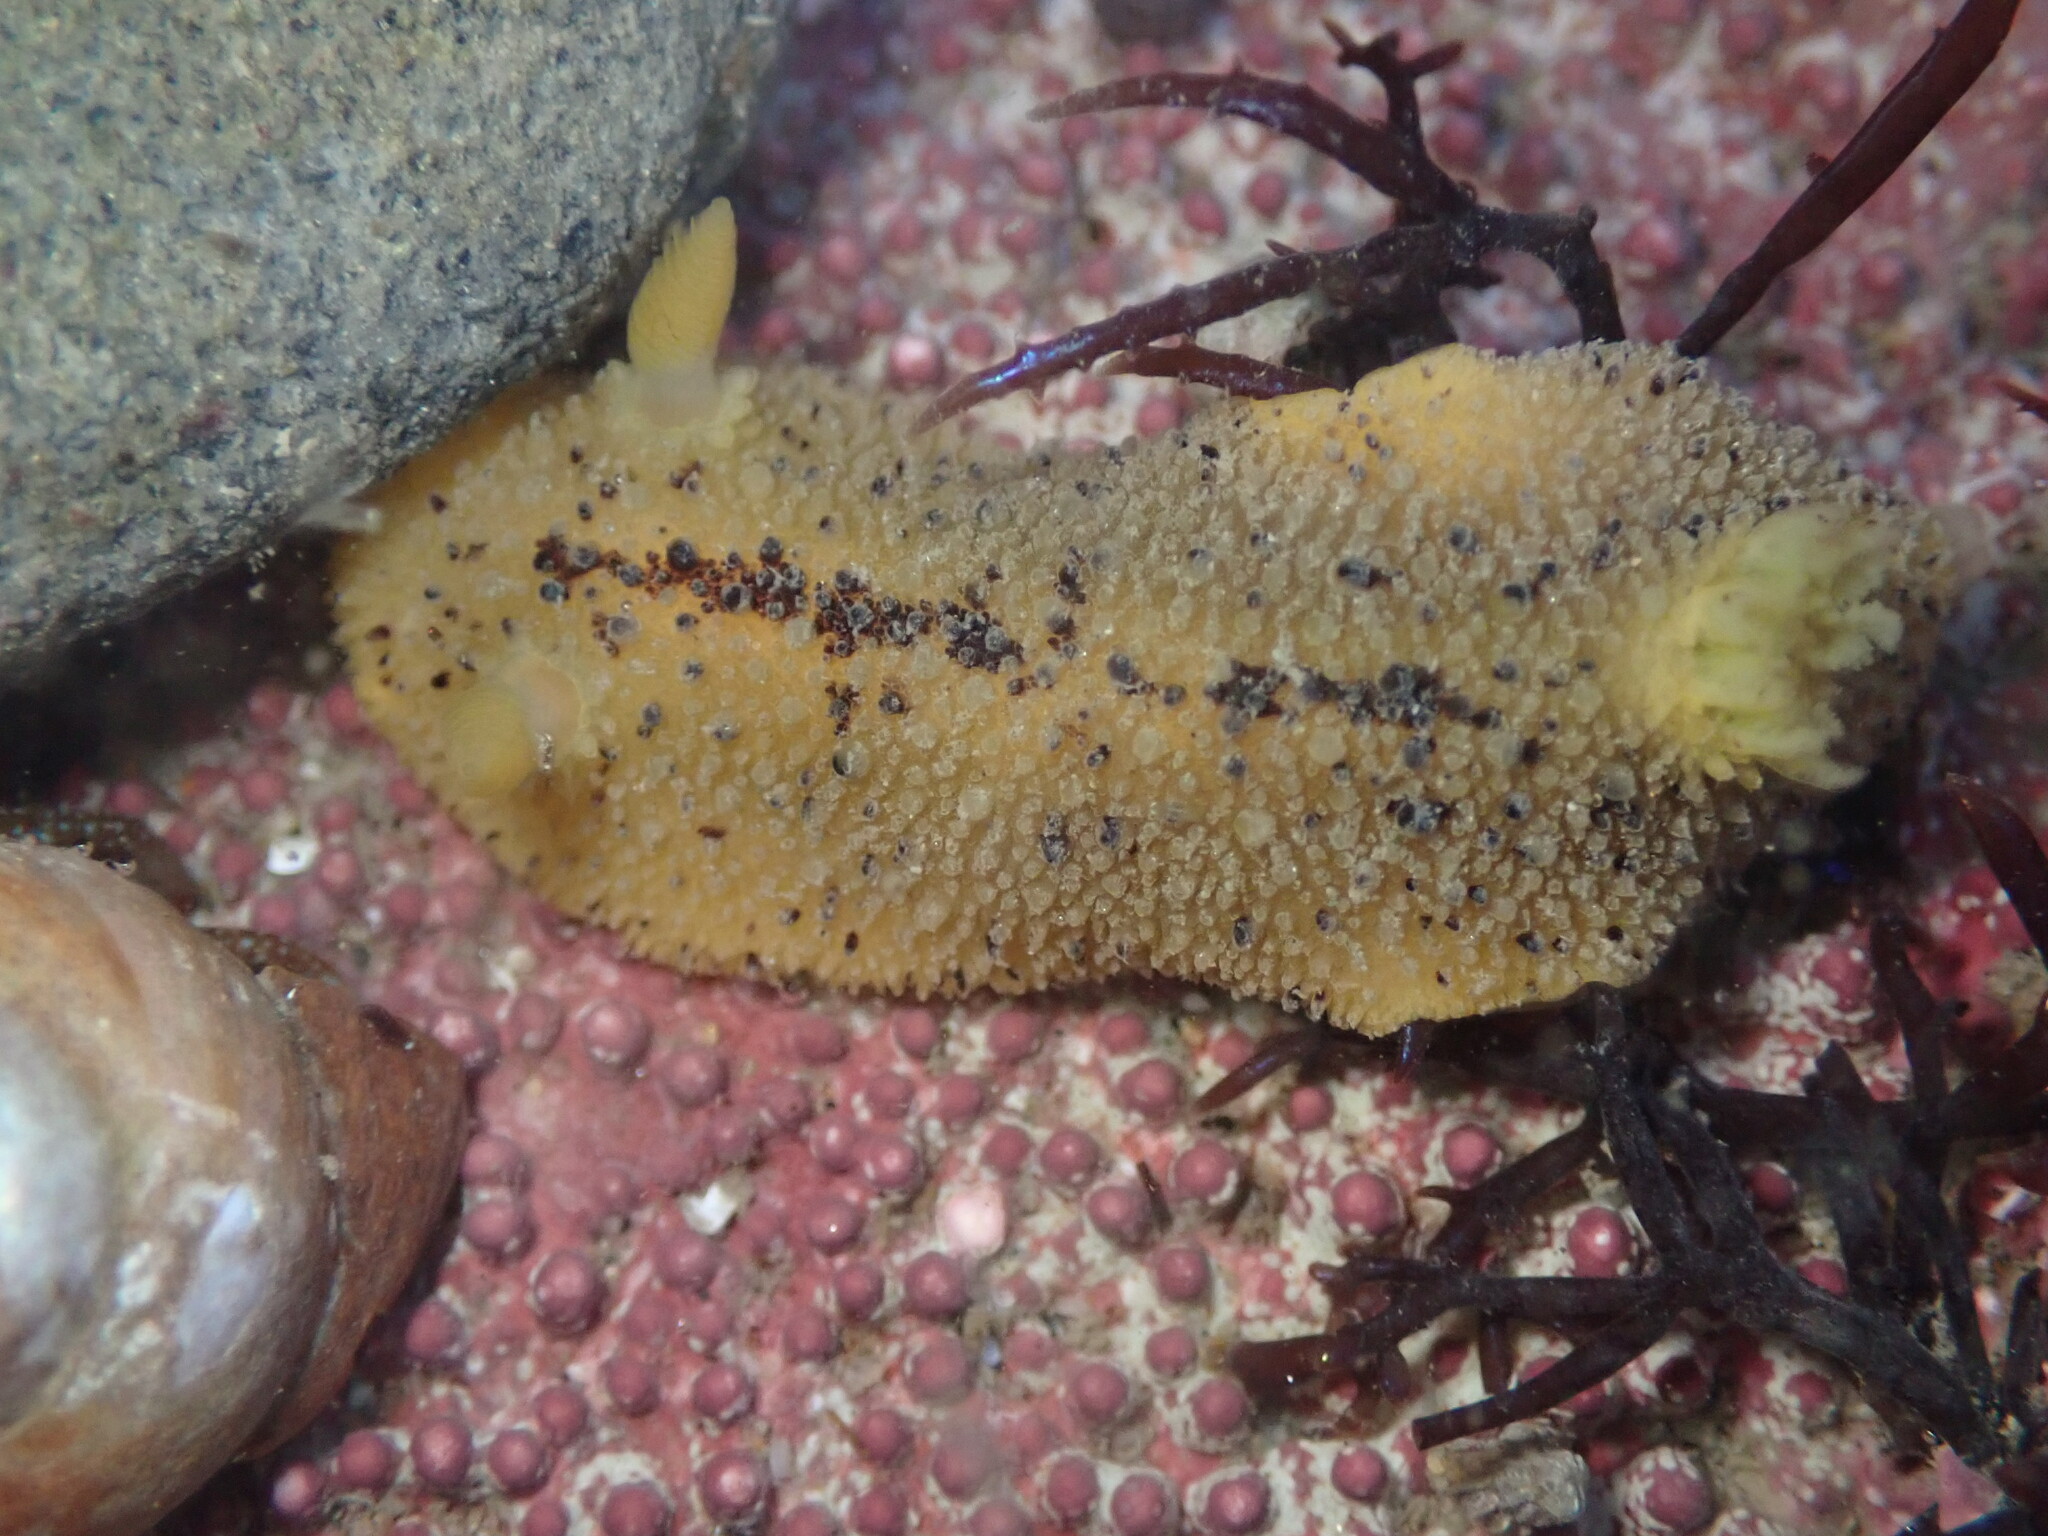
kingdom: Animalia
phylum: Mollusca
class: Gastropoda
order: Nudibranchia
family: Dorididae
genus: Doris
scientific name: Doris montereyensis
